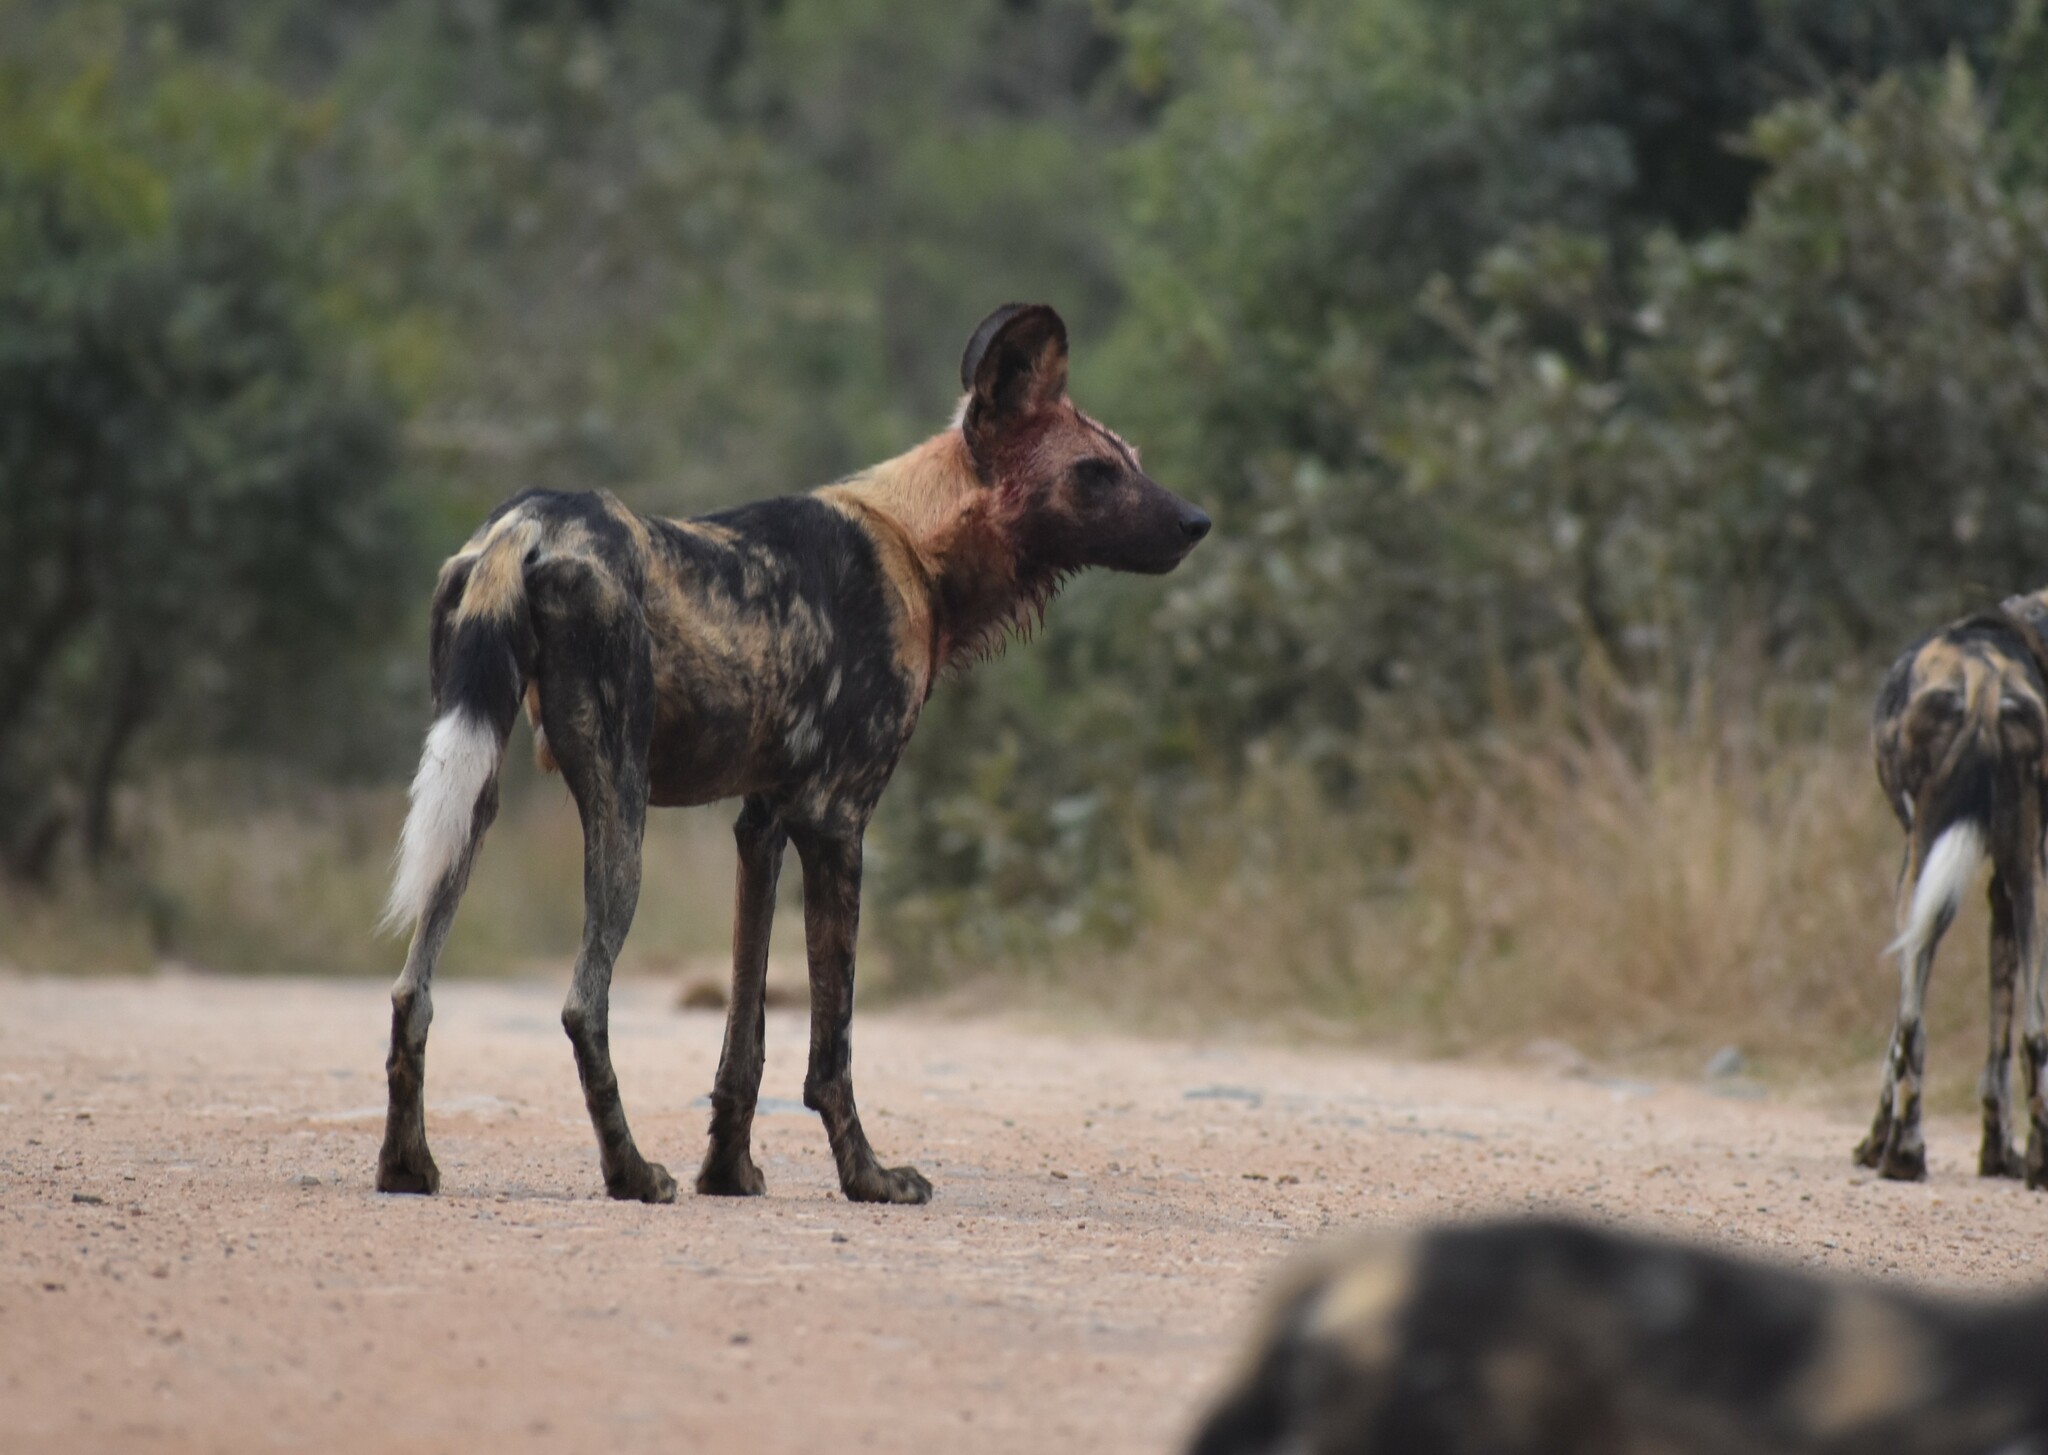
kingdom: Animalia
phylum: Chordata
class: Mammalia
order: Carnivora
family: Canidae
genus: Lycaon
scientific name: Lycaon pictus
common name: African wild dog
